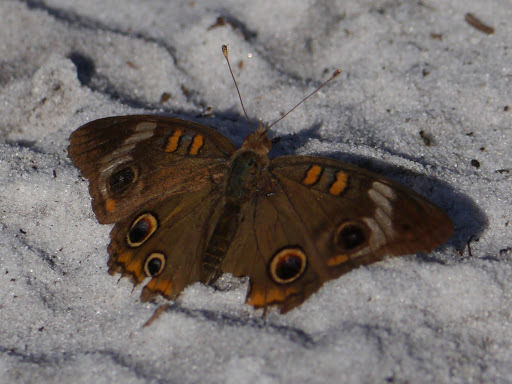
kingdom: Animalia
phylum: Arthropoda
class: Insecta
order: Lepidoptera
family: Nymphalidae
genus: Junonia
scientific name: Junonia coenia
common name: Common buckeye
